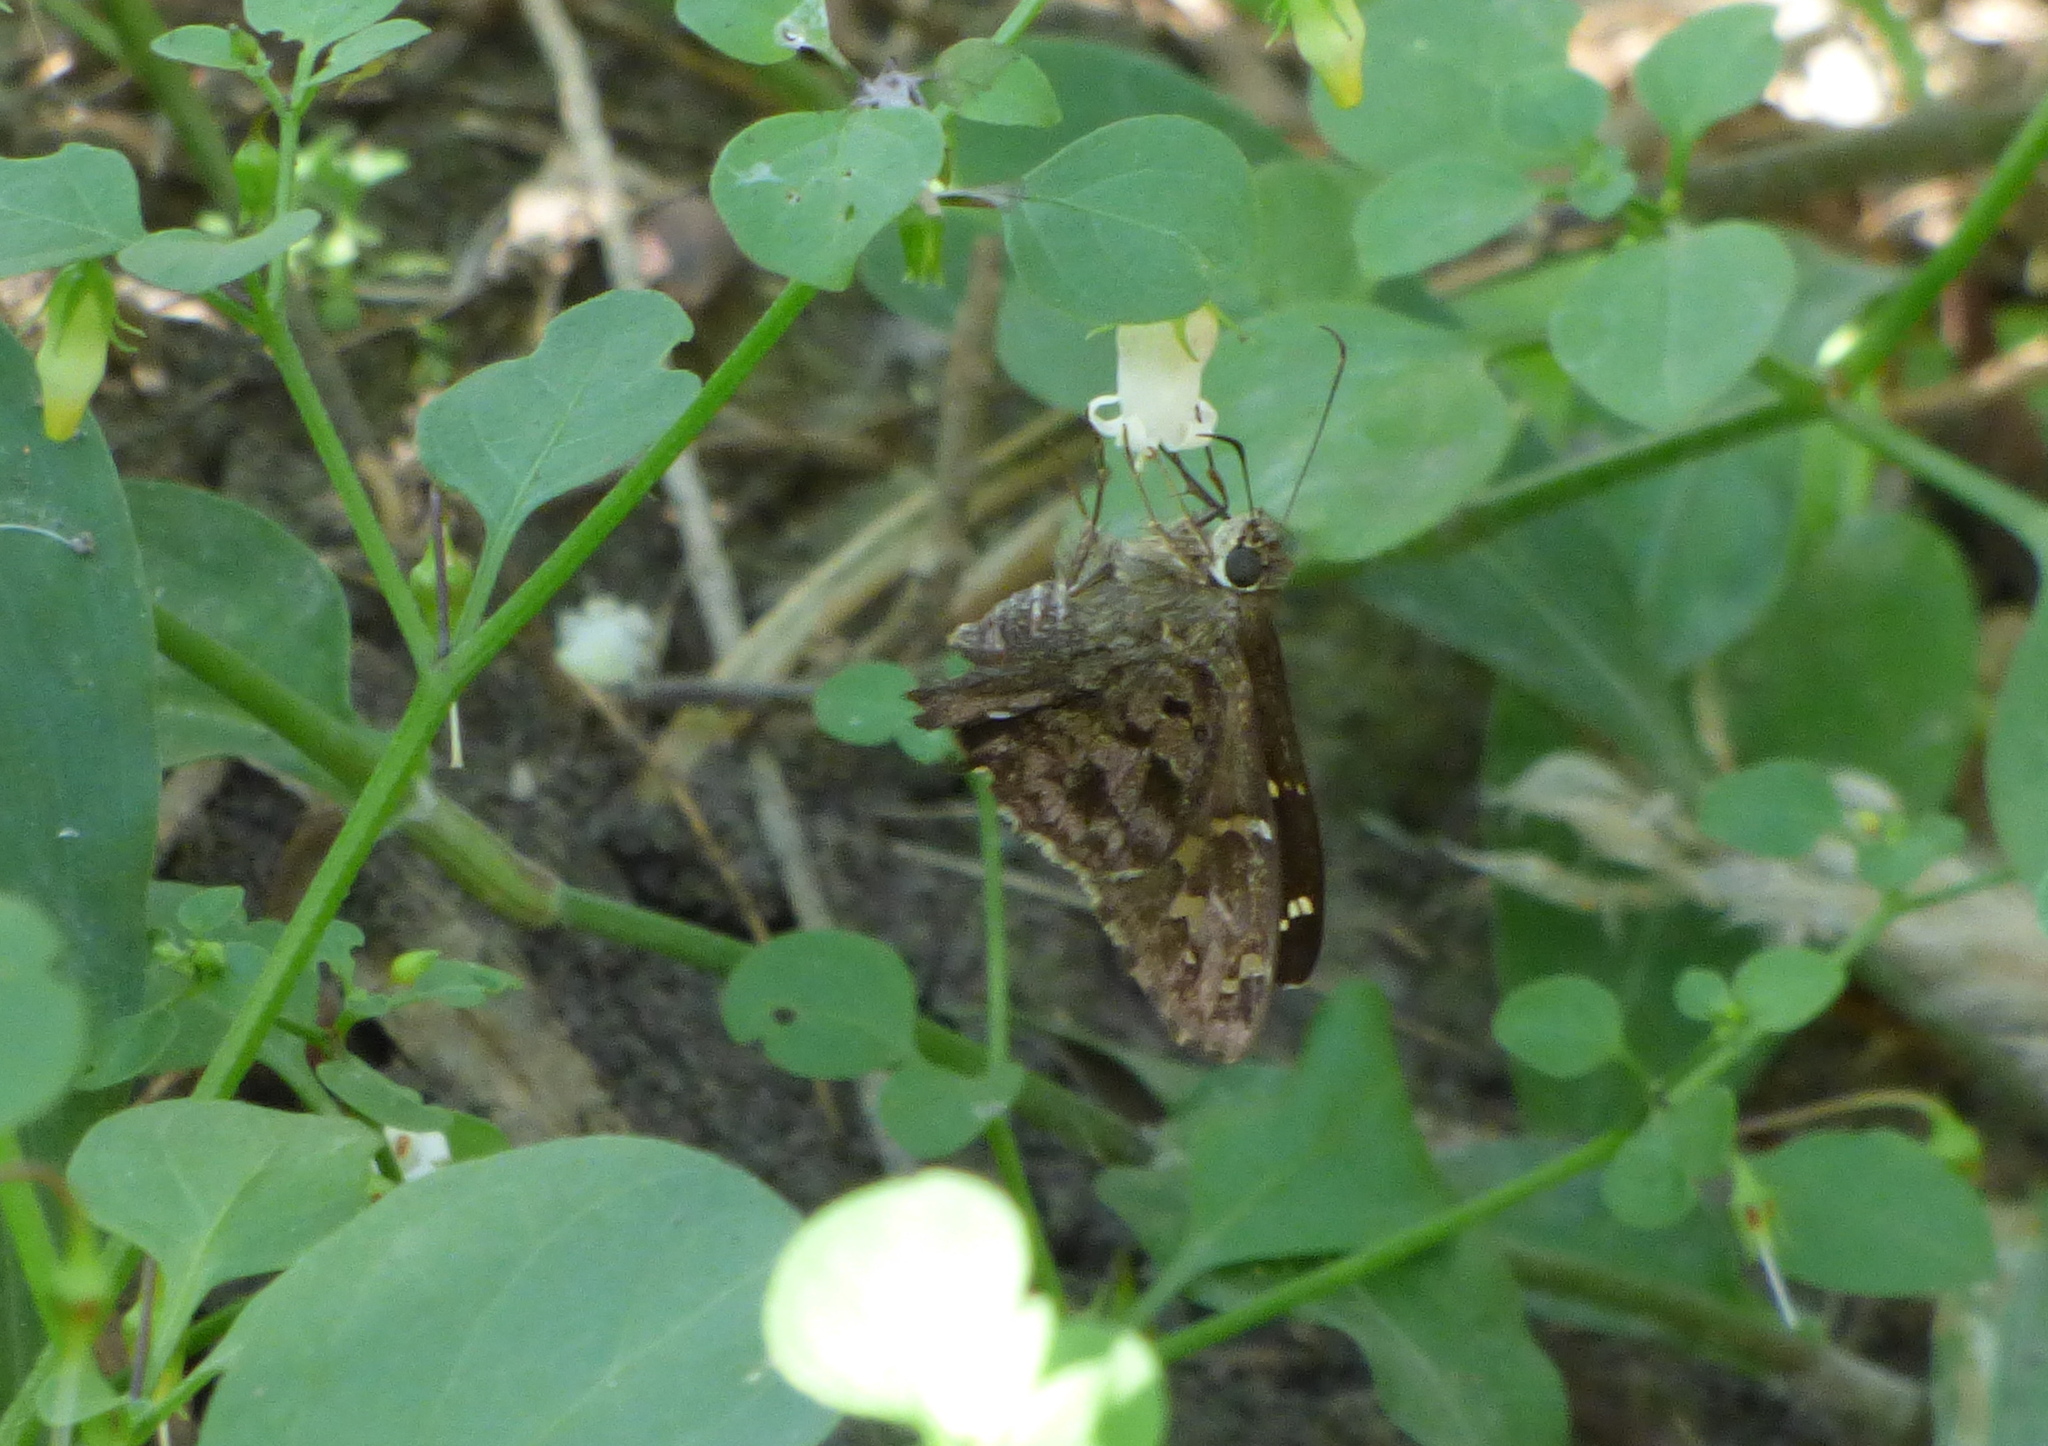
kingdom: Animalia
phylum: Arthropoda
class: Insecta
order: Lepidoptera
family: Hesperiidae
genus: Thorybes
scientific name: Thorybes
